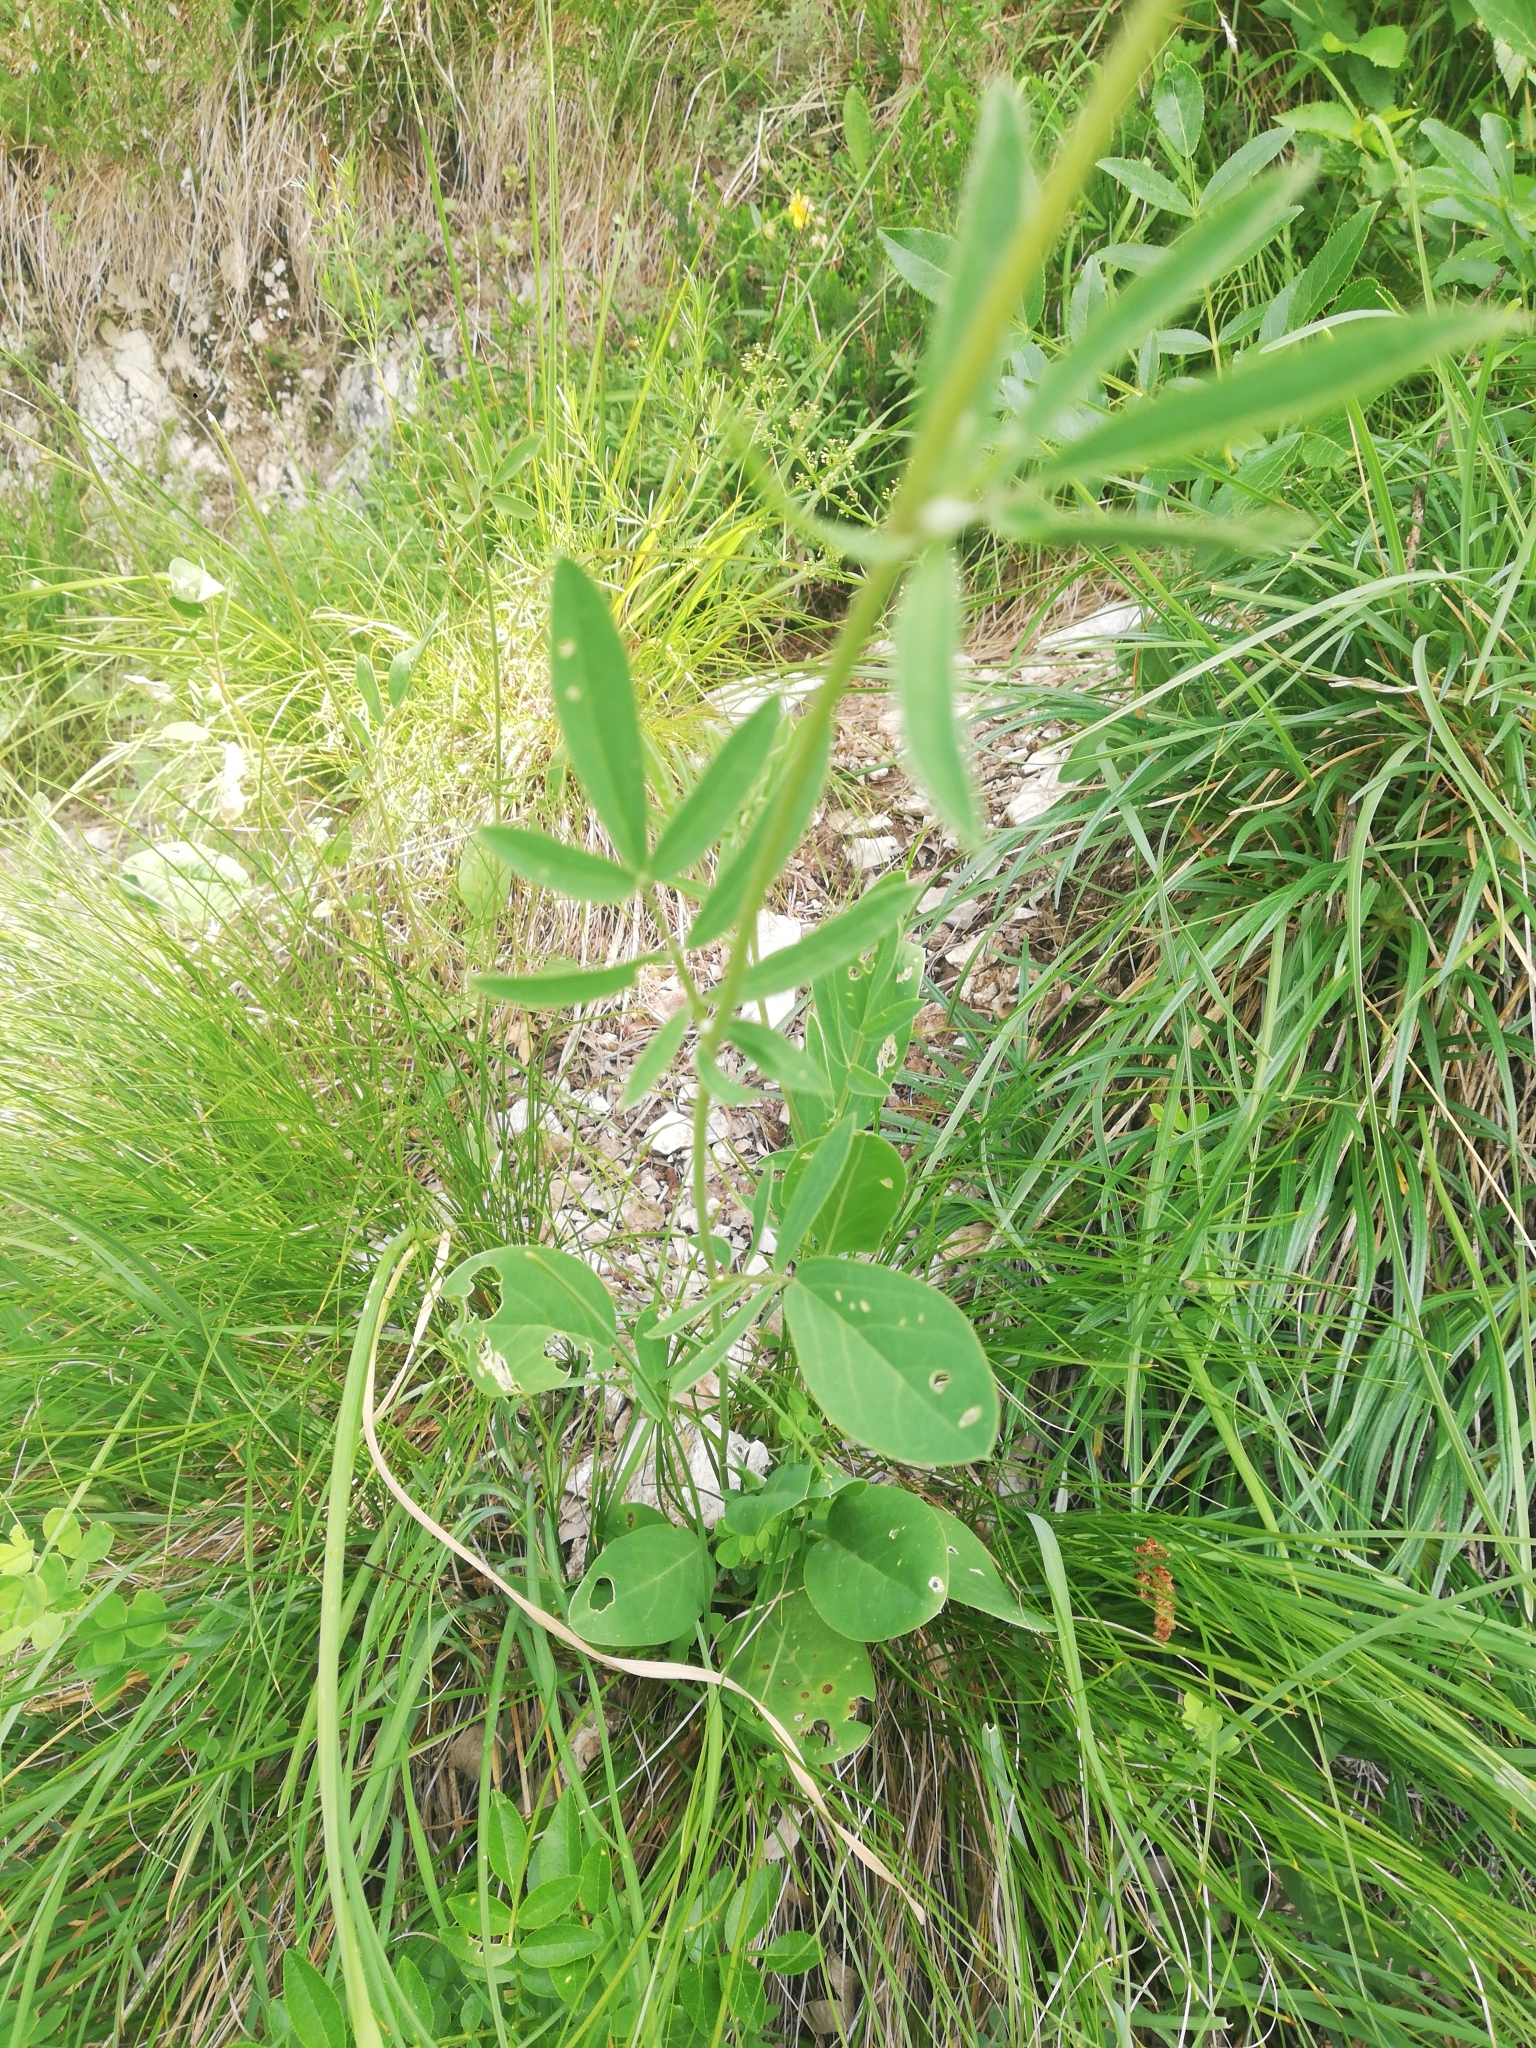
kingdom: Plantae
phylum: Tracheophyta
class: Magnoliopsida
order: Fabales
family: Fabaceae
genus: Anthyllis
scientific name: Anthyllis vulneraria
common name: Kidney vetch
